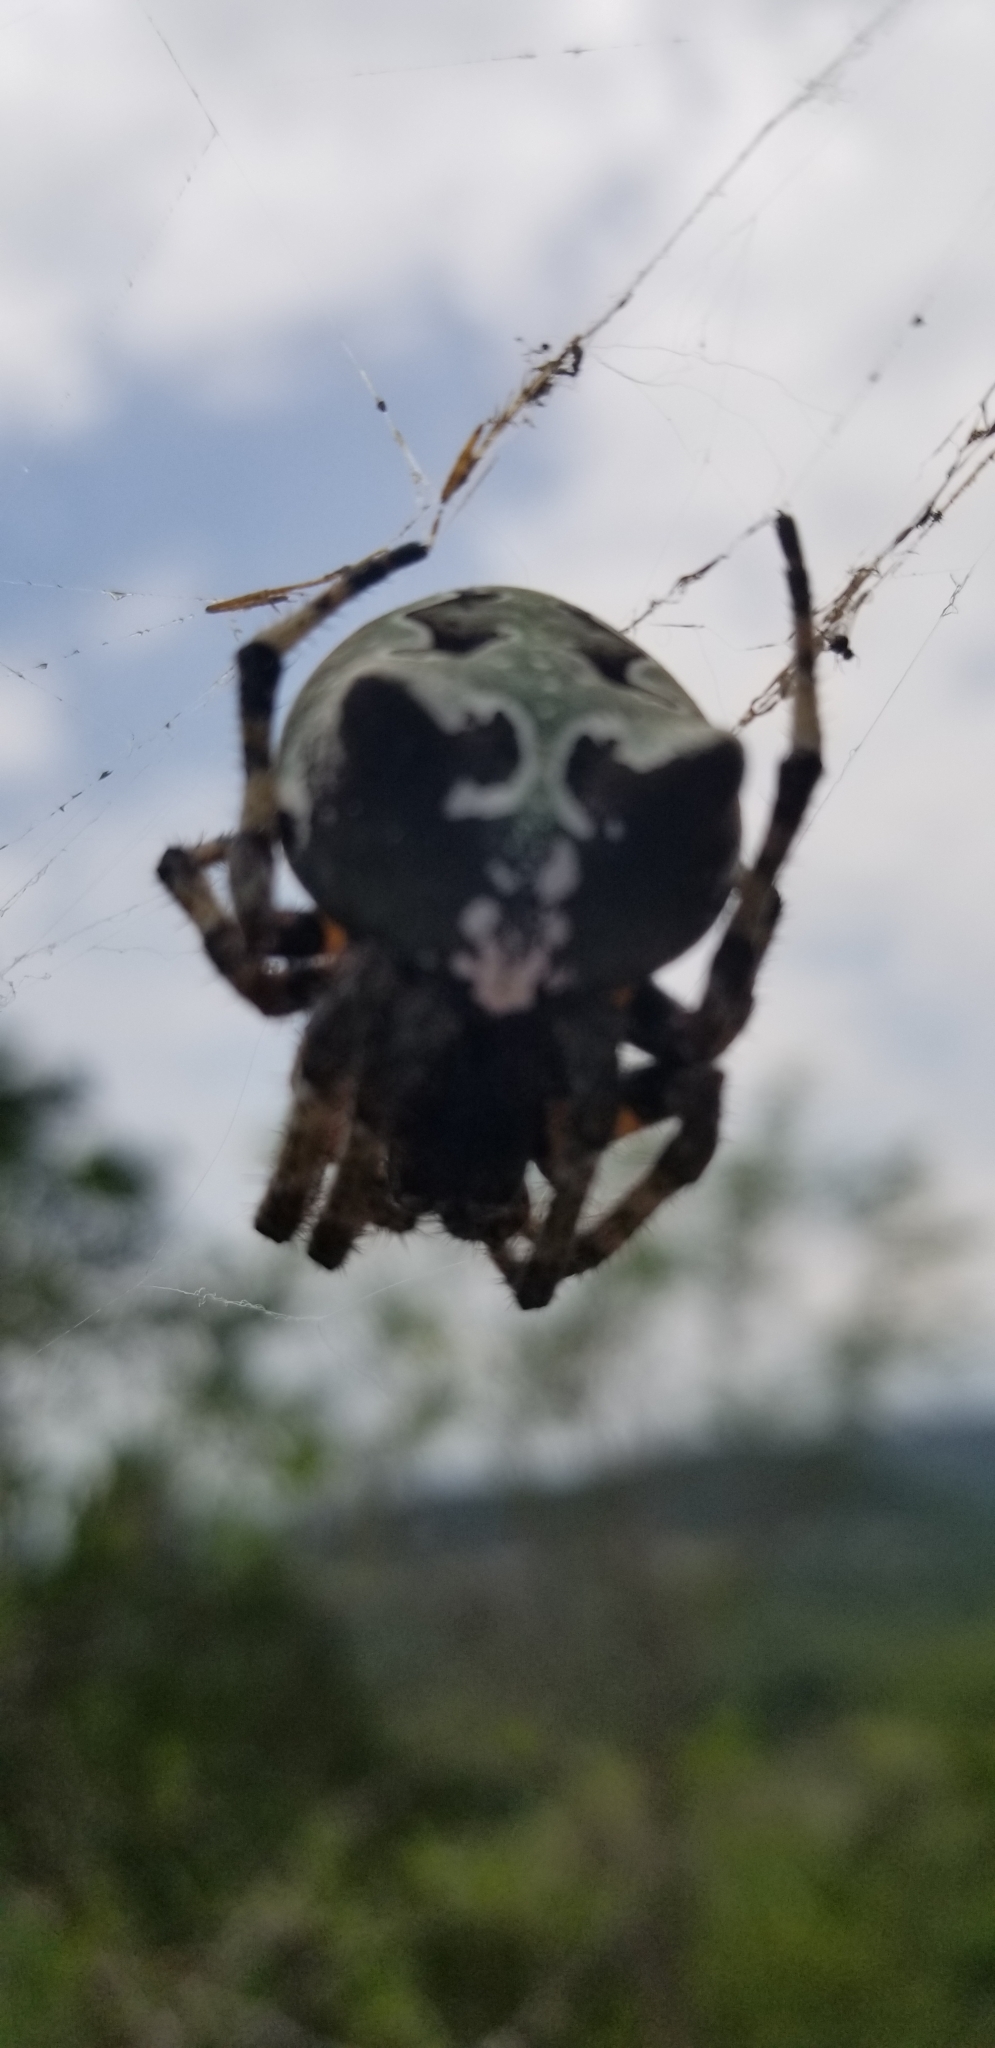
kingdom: Animalia
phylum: Arthropoda
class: Arachnida
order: Araneae
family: Araneidae
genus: Araneus
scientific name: Araneus bicentenarius
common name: Giant lichen orbweaver
